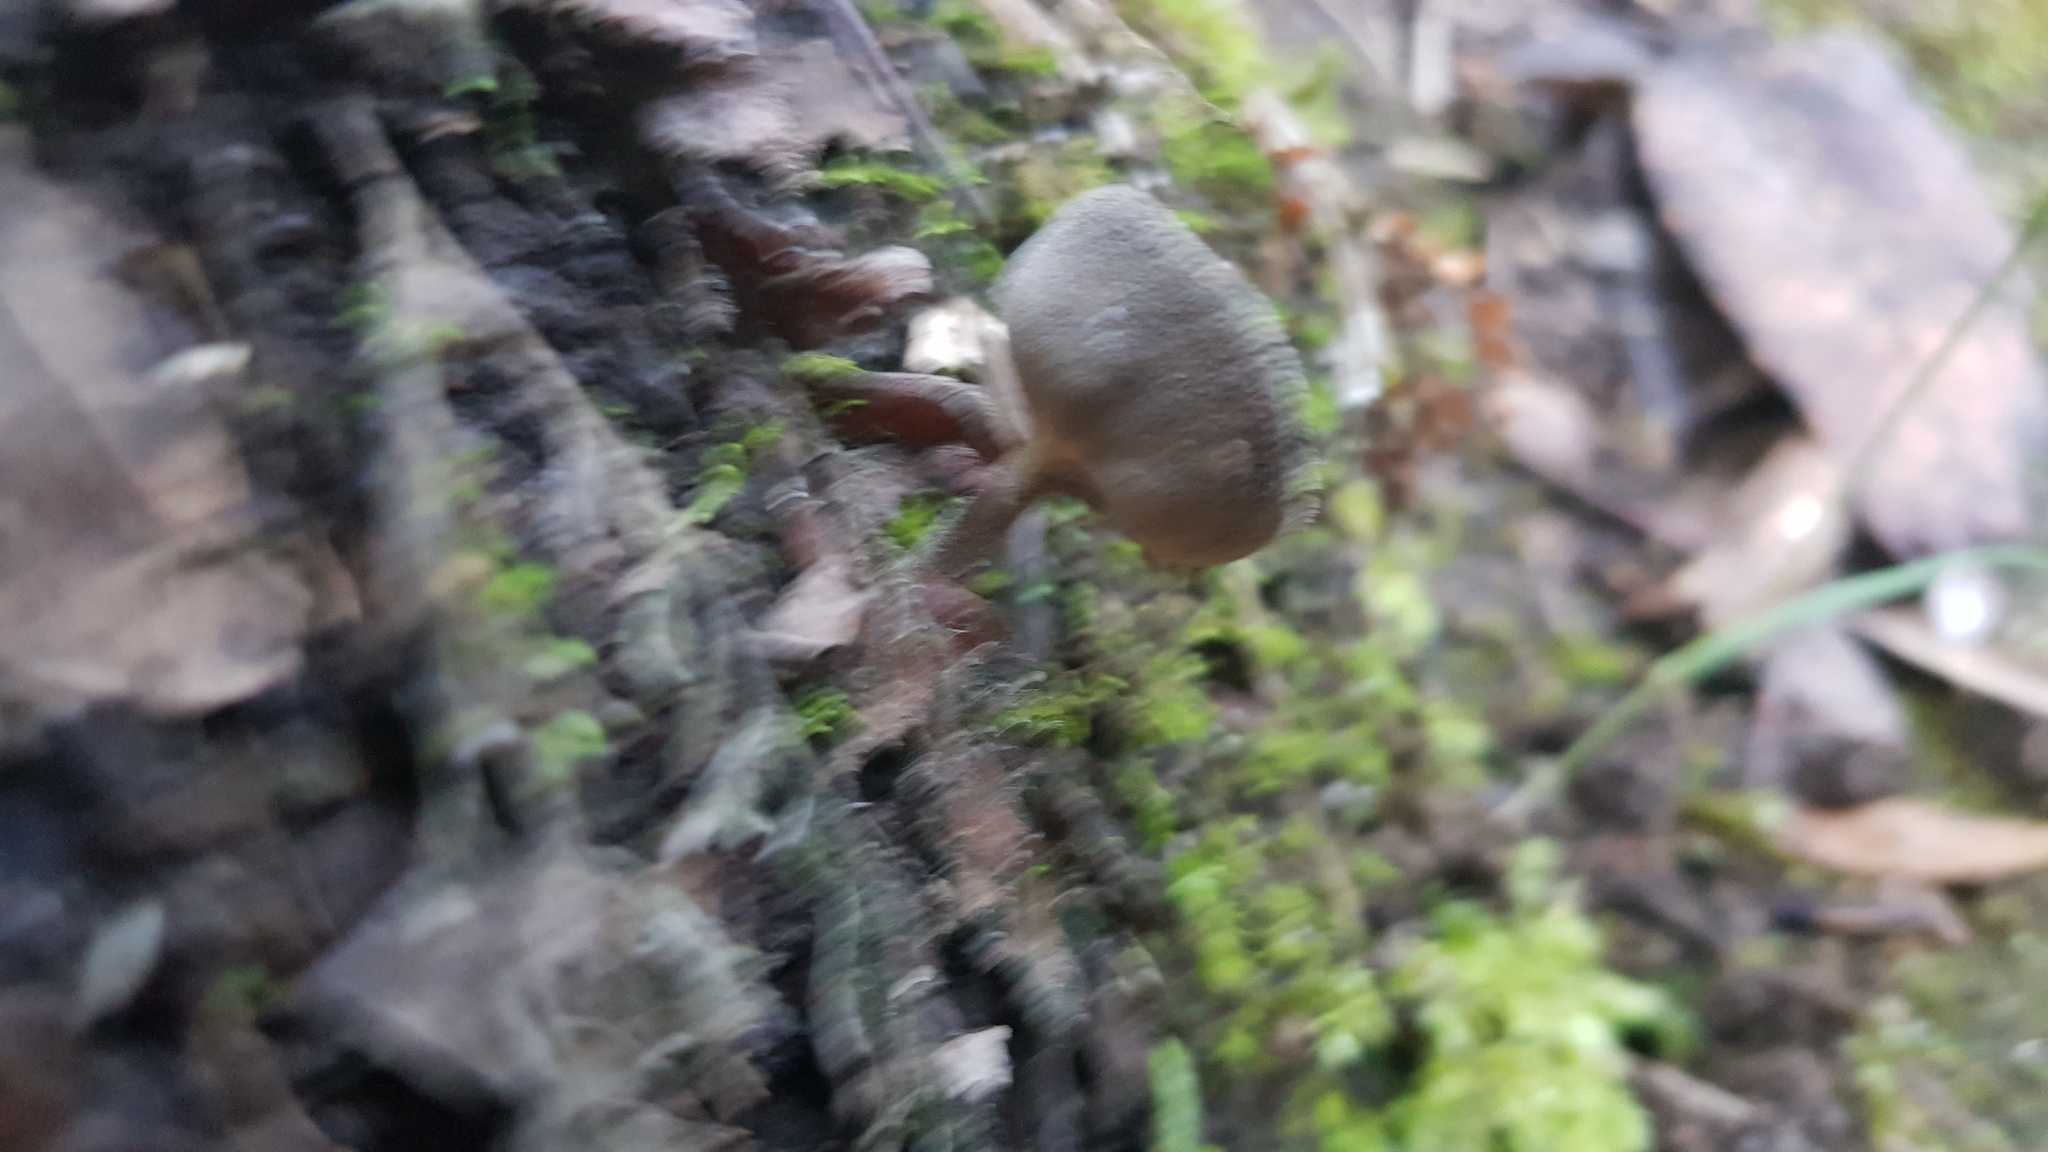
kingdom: Fungi
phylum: Ascomycota
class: Pezizomycetes
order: Pezizales
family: Helvellaceae
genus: Helvella
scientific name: Helvella fibrosa
